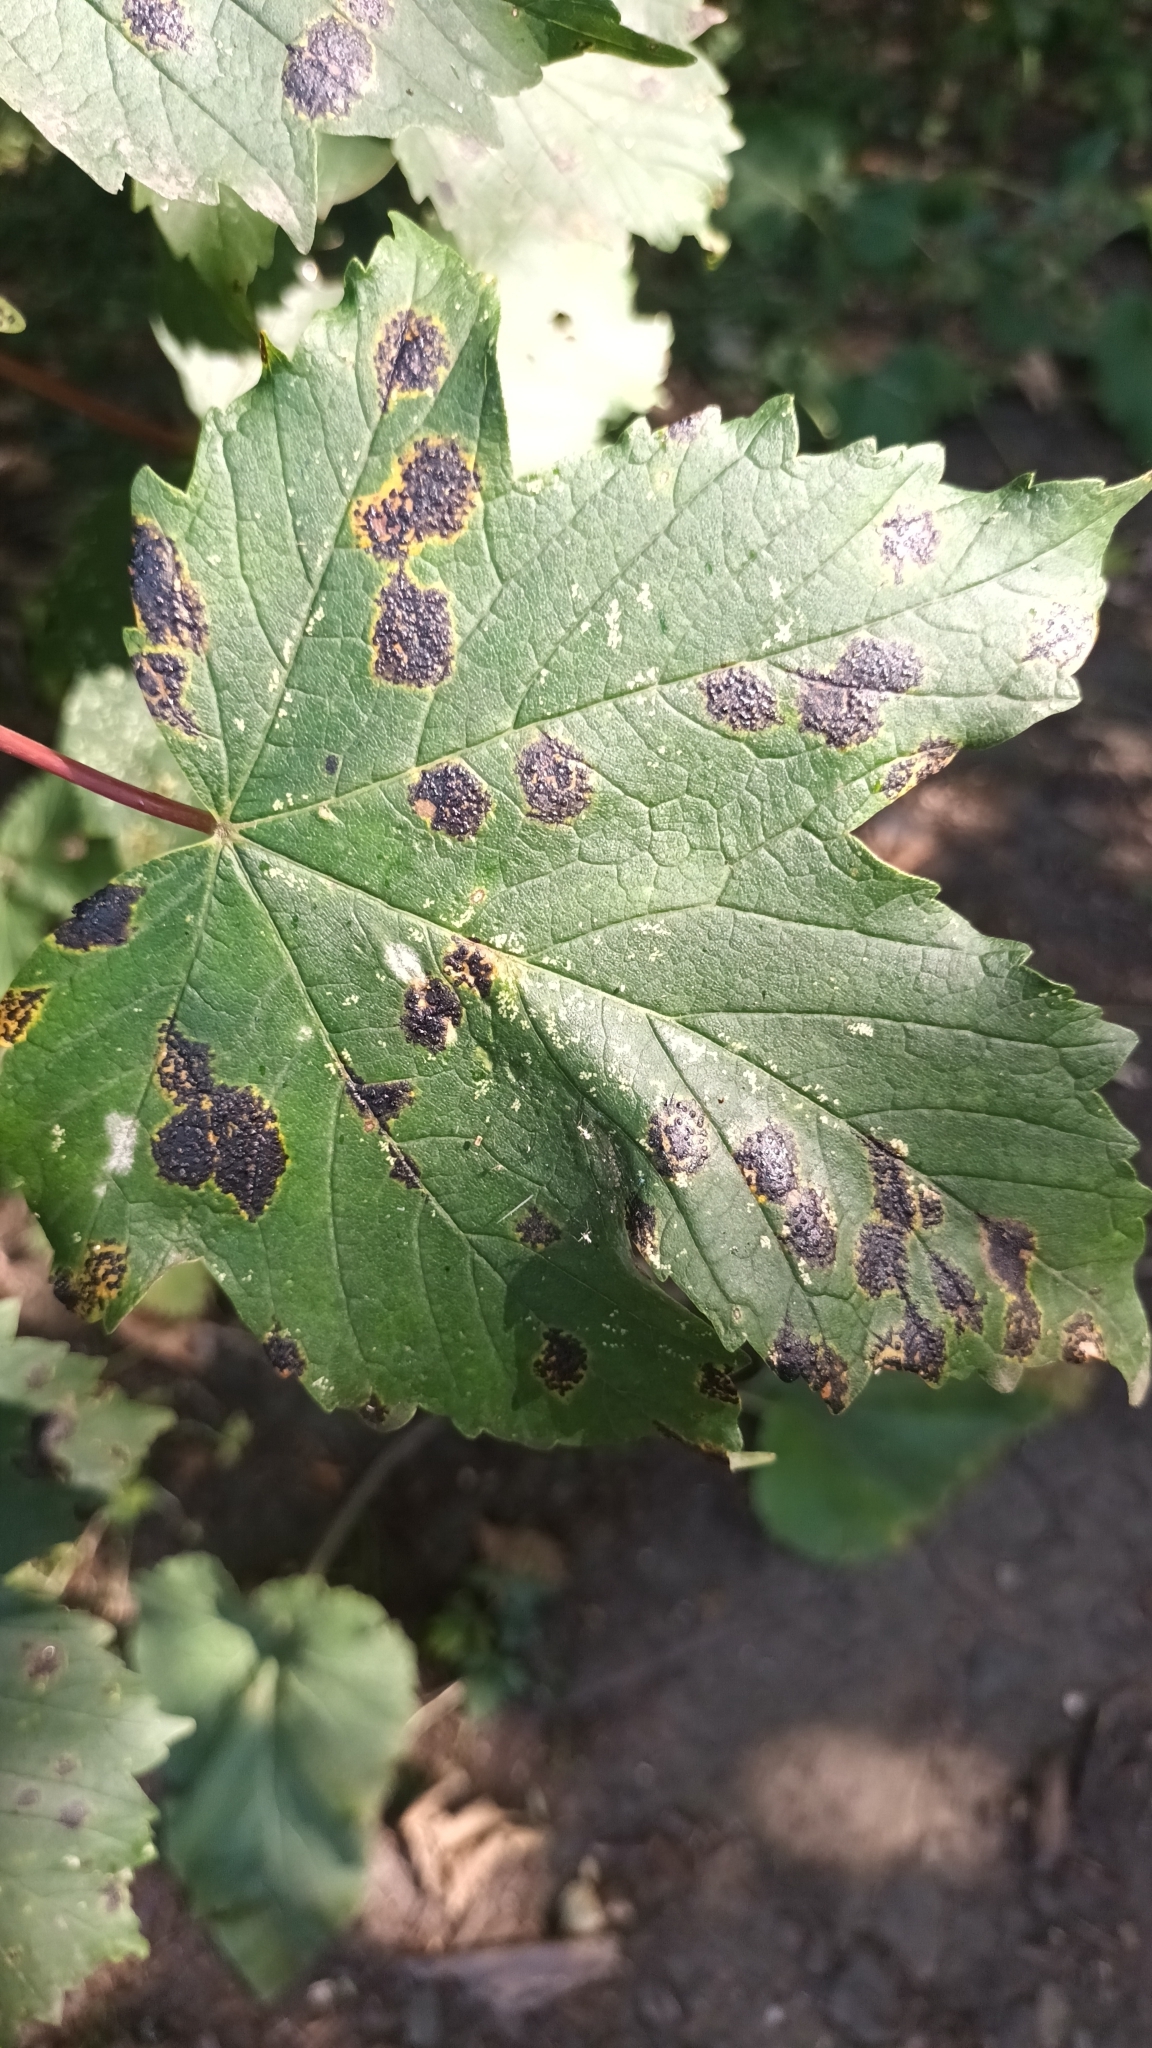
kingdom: Fungi
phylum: Ascomycota
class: Leotiomycetes
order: Rhytismatales
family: Rhytismataceae
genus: Rhytisma
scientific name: Rhytisma acerinum
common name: European tar spot
